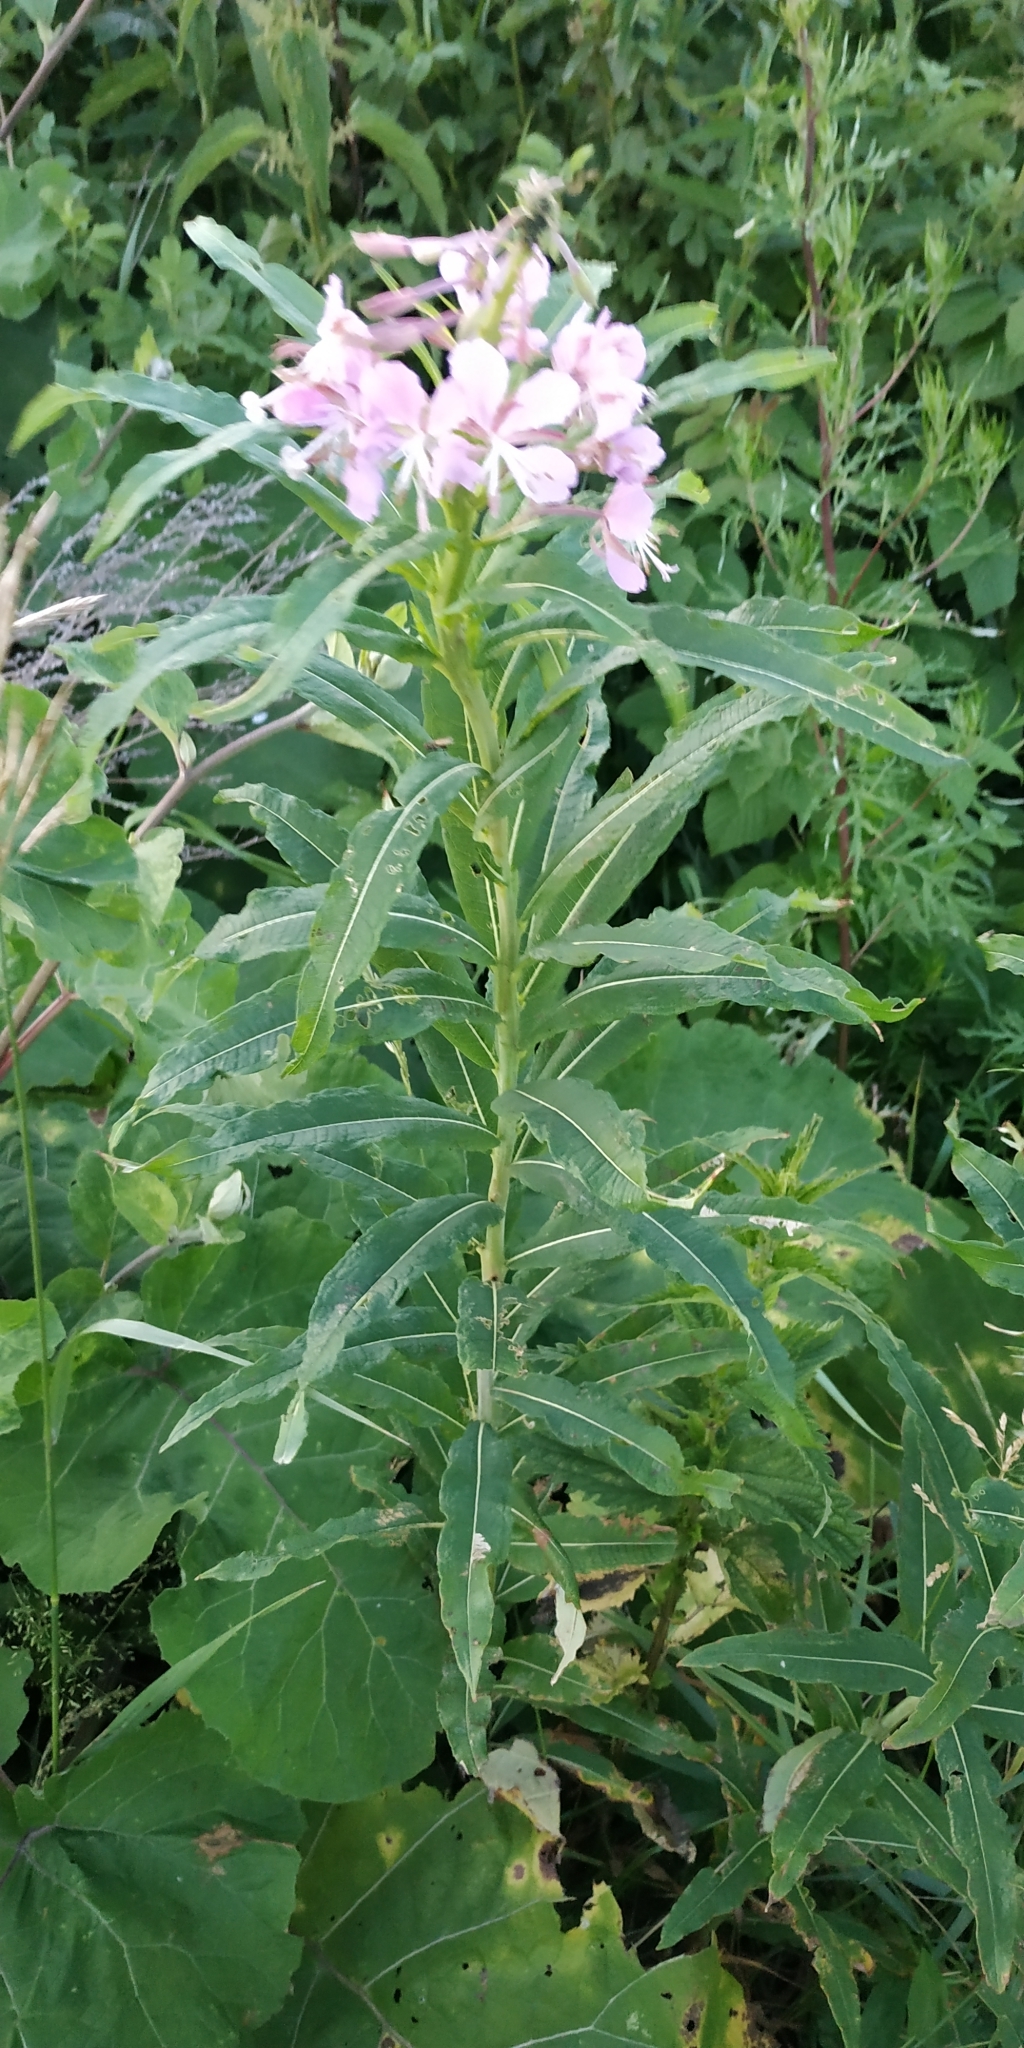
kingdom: Plantae
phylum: Tracheophyta
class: Magnoliopsida
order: Myrtales
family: Onagraceae
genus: Chamaenerion
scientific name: Chamaenerion angustifolium
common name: Fireweed
